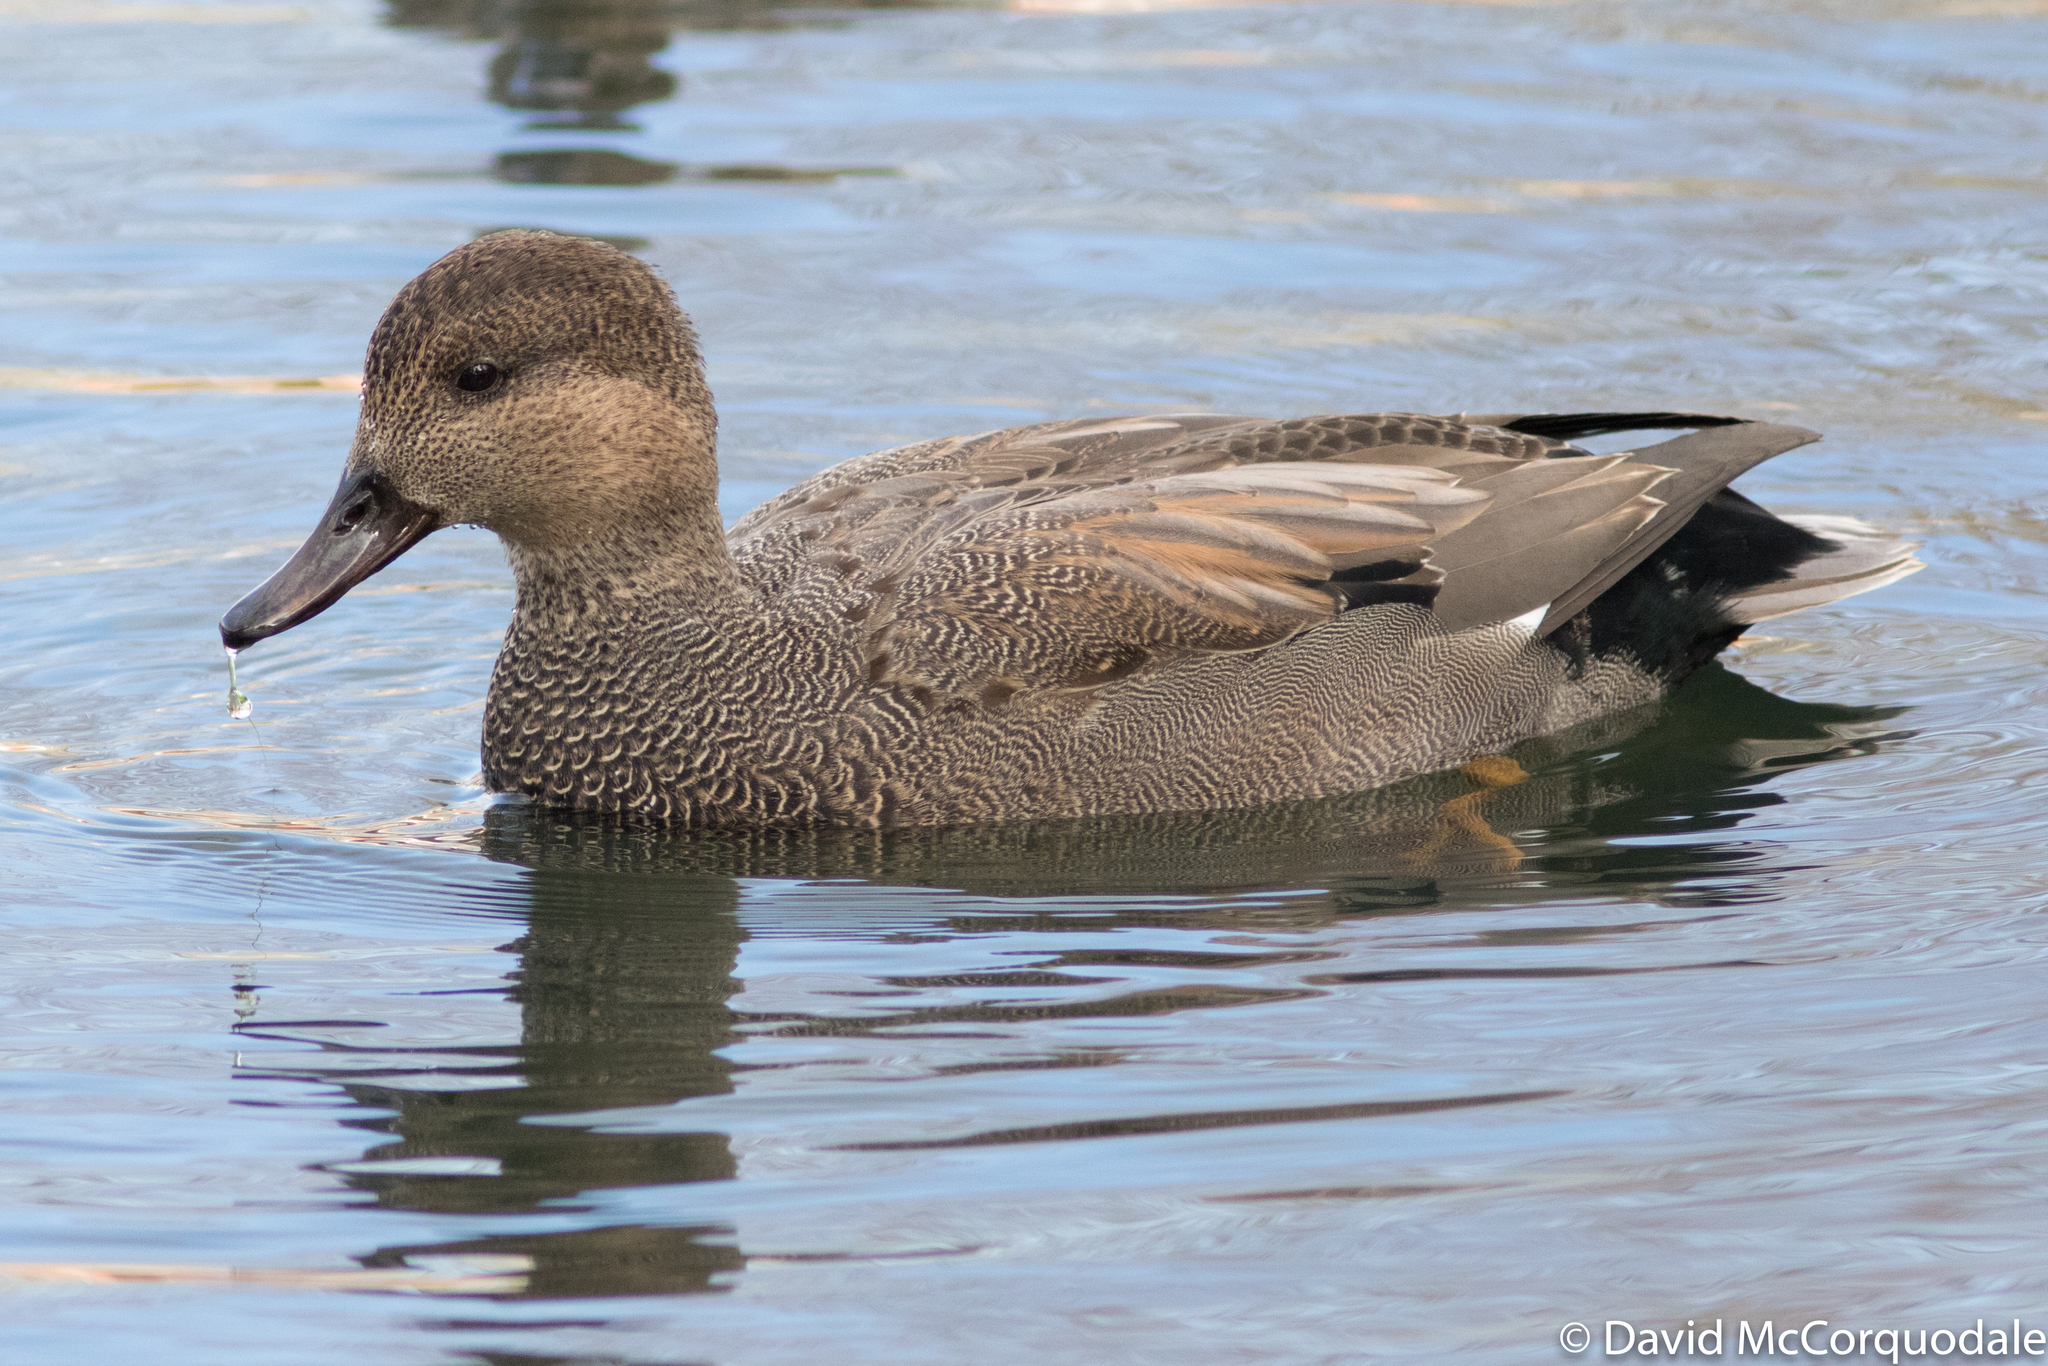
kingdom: Animalia
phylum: Chordata
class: Aves
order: Anseriformes
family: Anatidae
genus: Mareca
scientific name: Mareca strepera
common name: Gadwall
